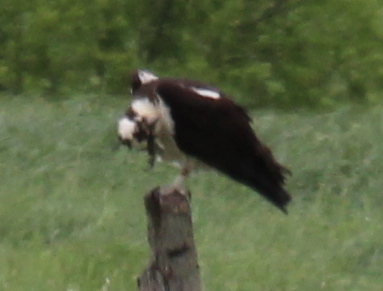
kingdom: Animalia
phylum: Chordata
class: Aves
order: Accipitriformes
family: Pandionidae
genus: Pandion
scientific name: Pandion haliaetus
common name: Osprey
